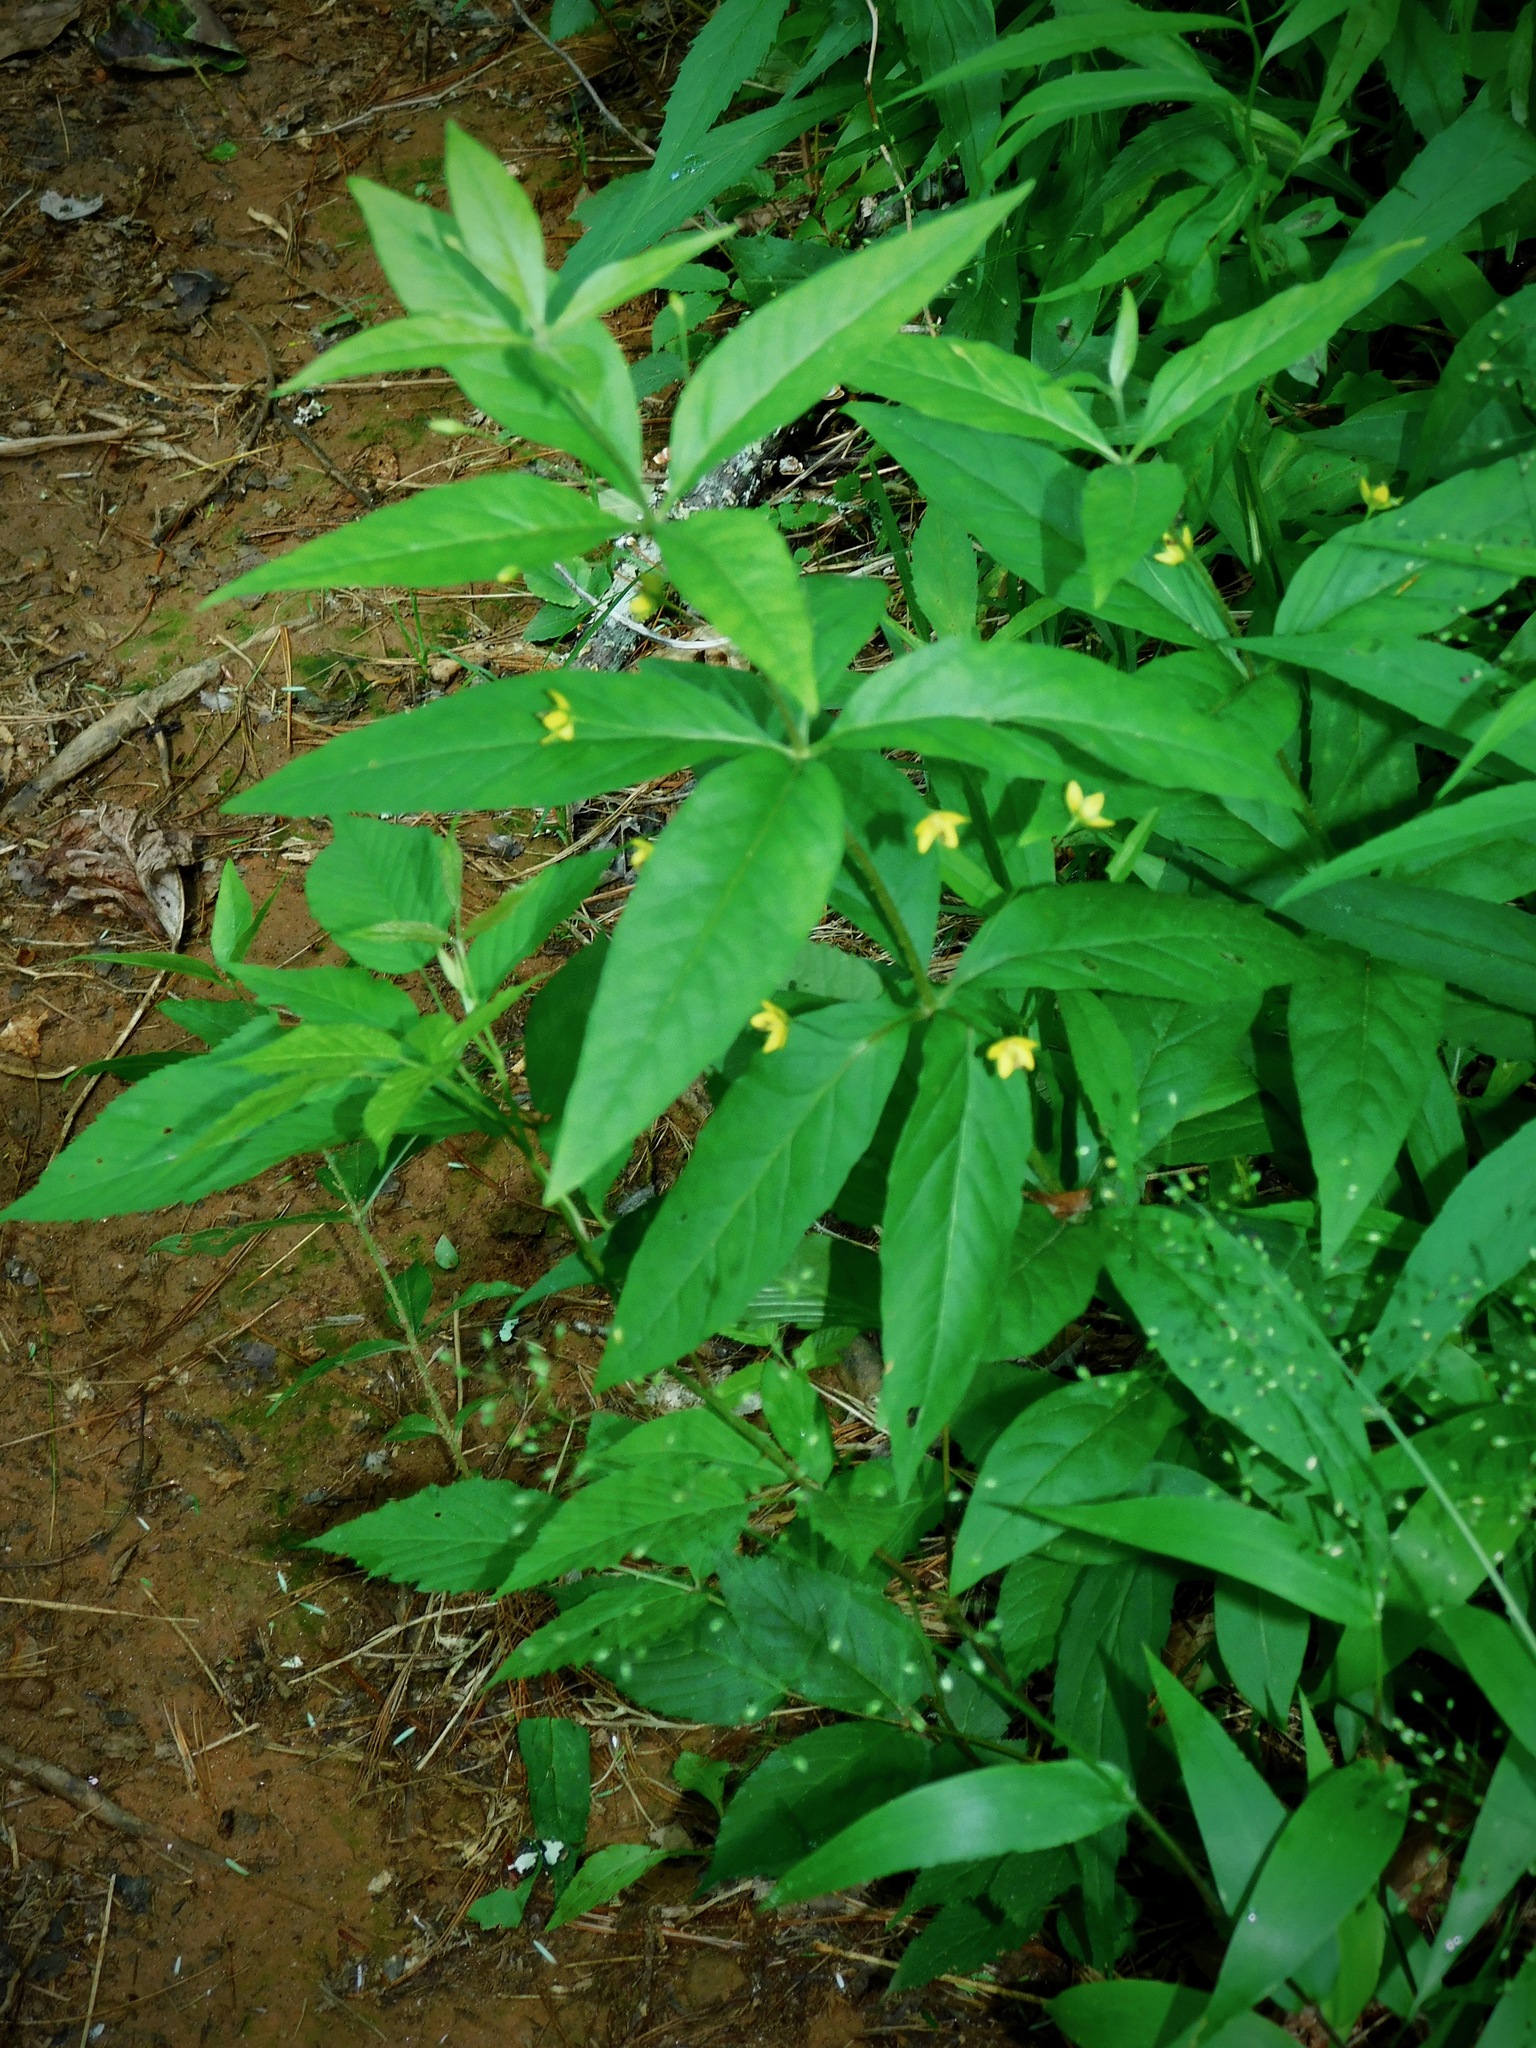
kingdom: Plantae
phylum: Tracheophyta
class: Magnoliopsida
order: Ericales
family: Primulaceae
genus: Lysimachia
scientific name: Lysimachia quadrifolia
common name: Whorled loosestrife
